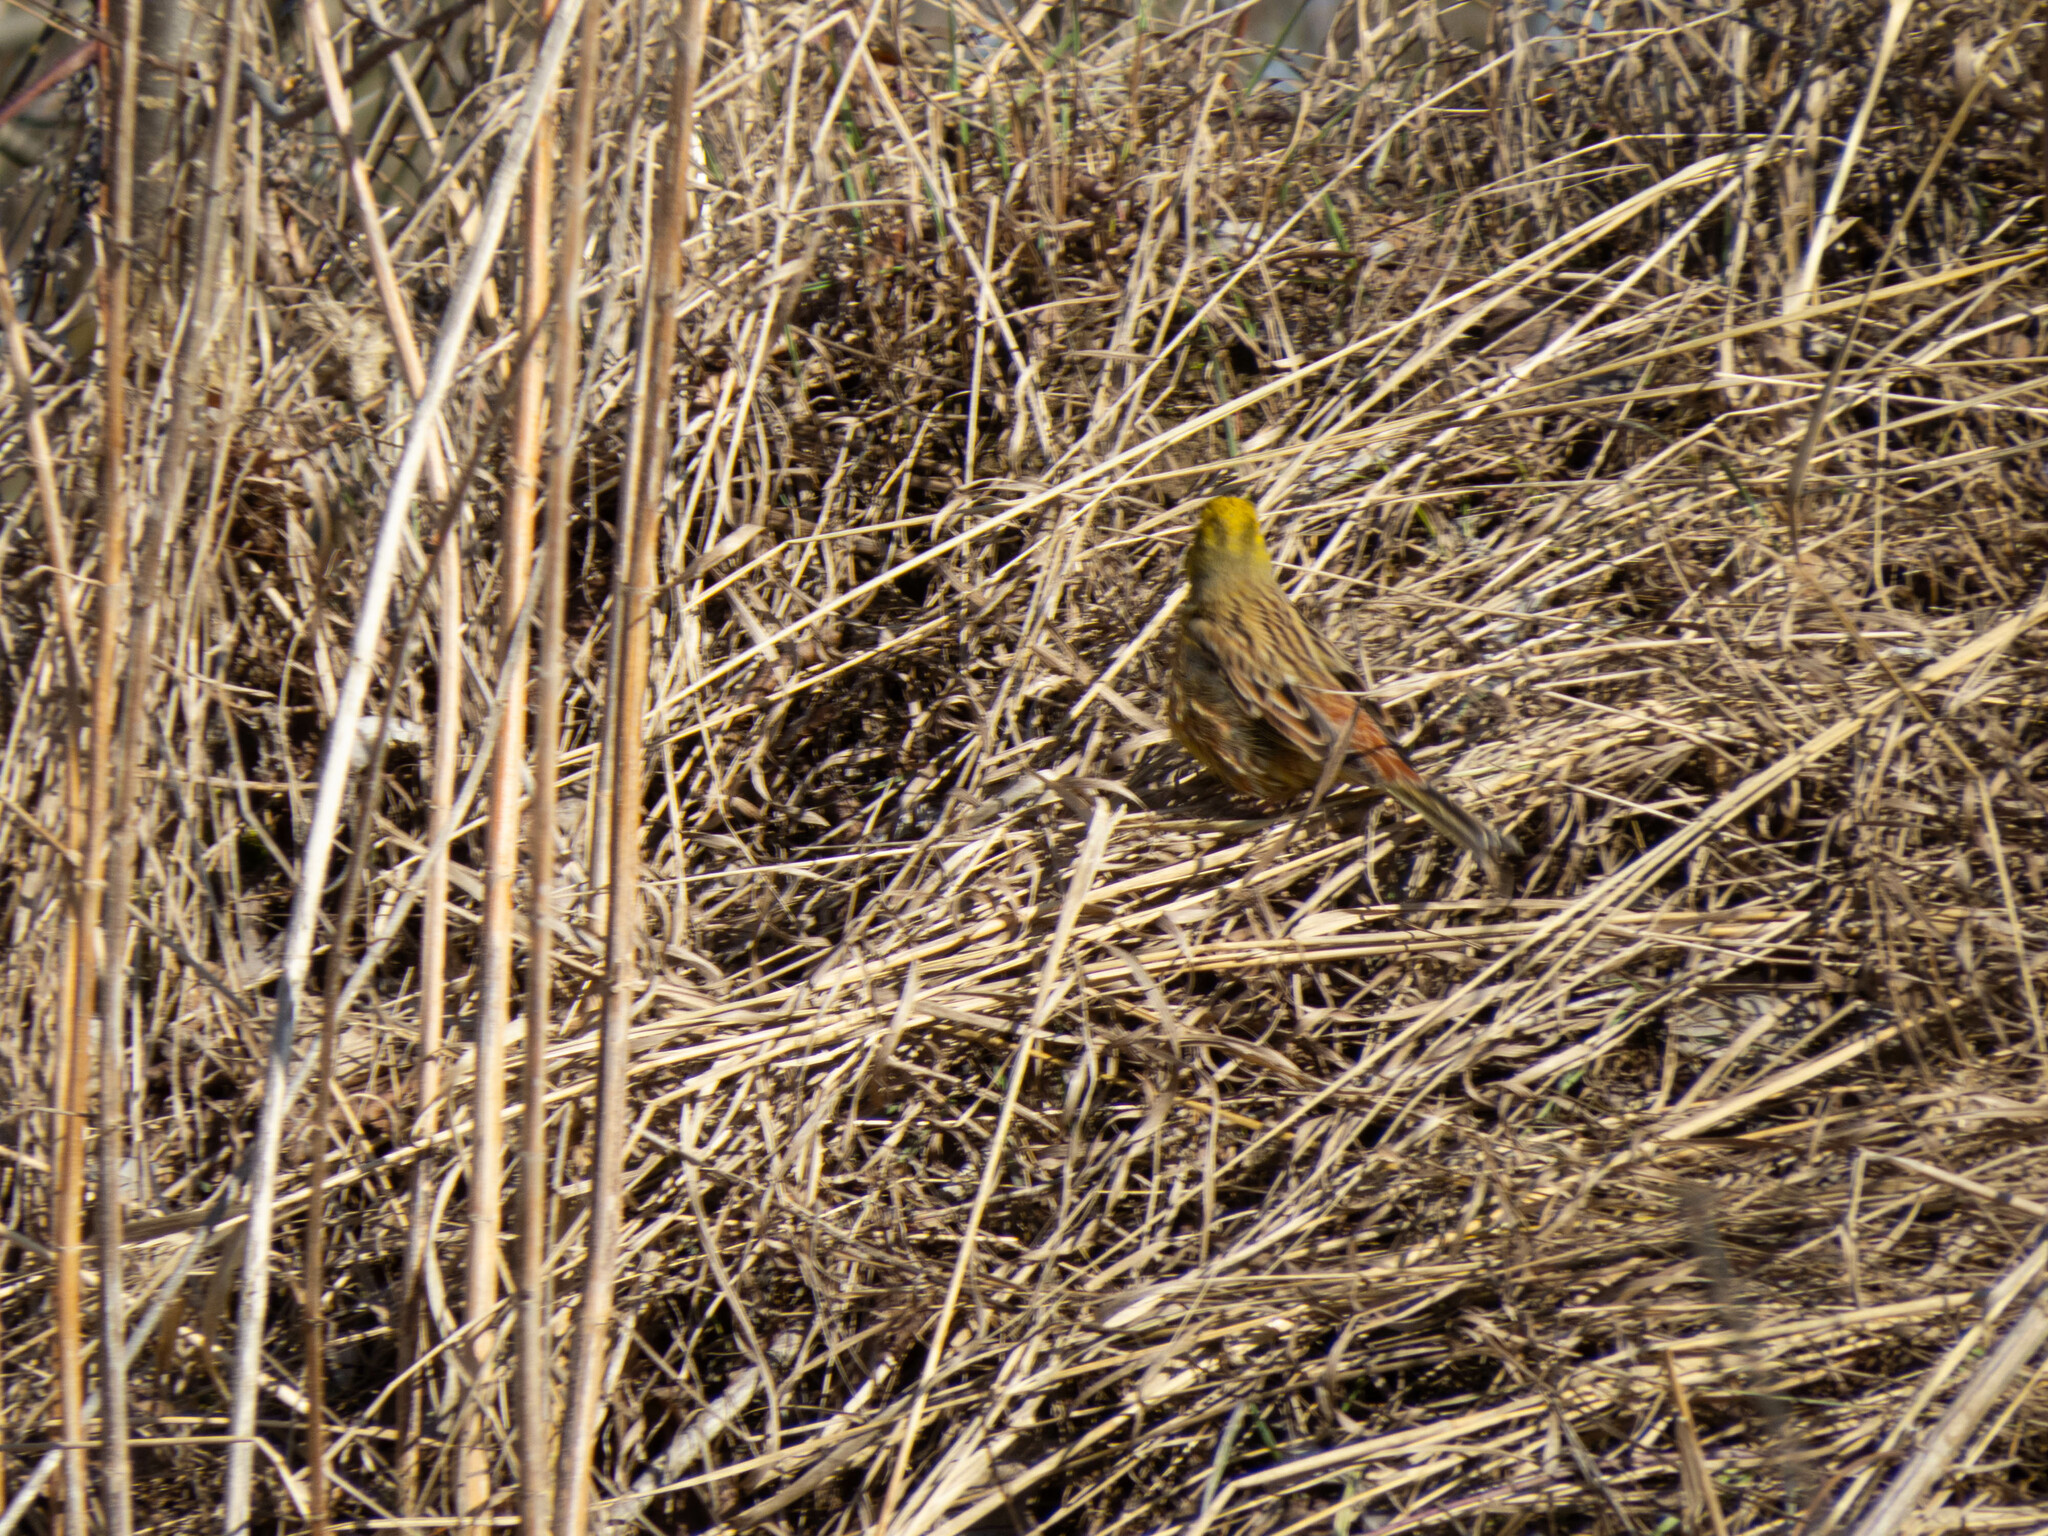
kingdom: Animalia
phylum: Chordata
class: Aves
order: Passeriformes
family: Emberizidae
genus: Emberiza
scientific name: Emberiza citrinella
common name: Yellowhammer
